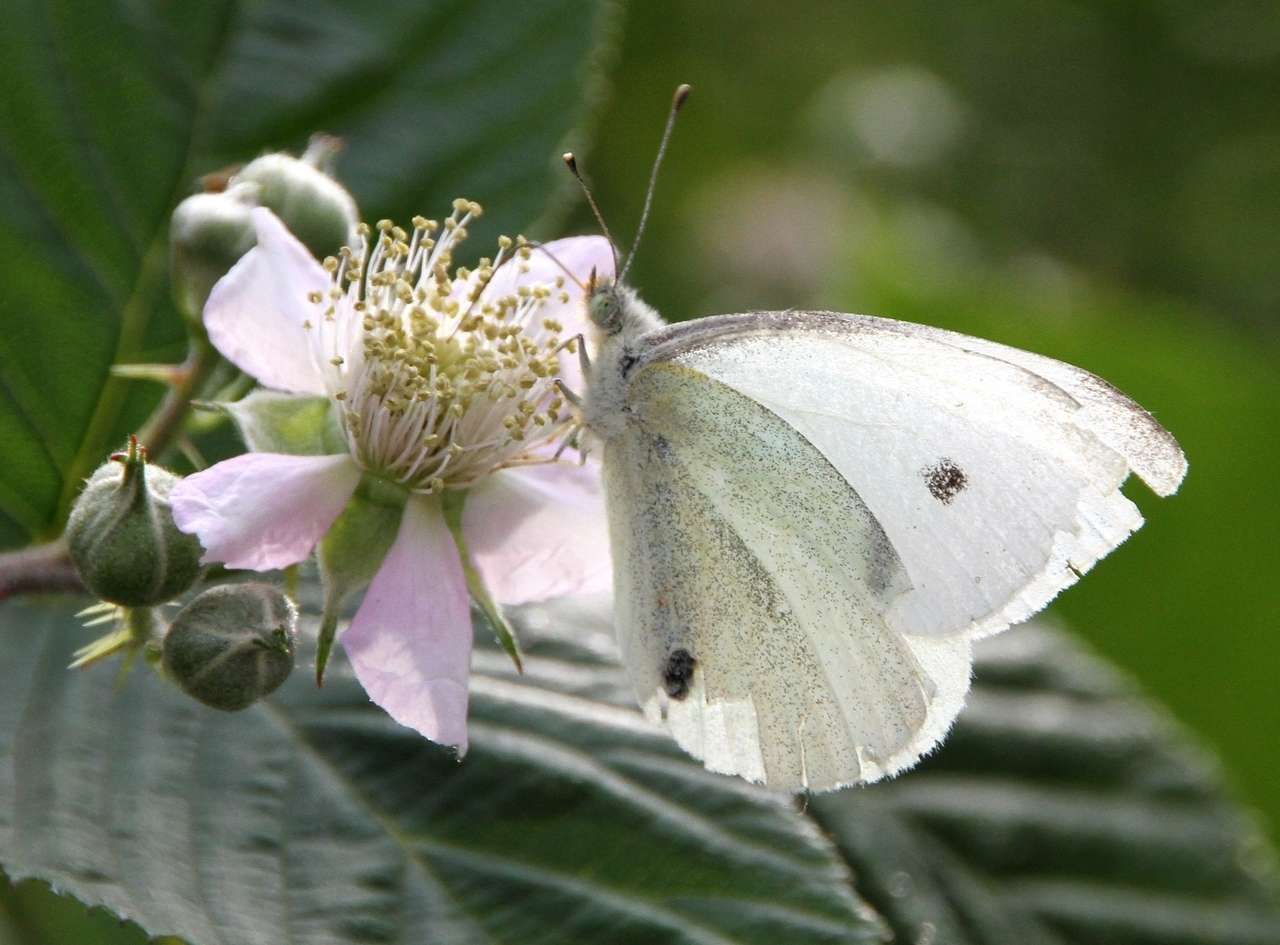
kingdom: Animalia
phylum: Arthropoda
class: Insecta
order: Lepidoptera
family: Pieridae
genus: Pieris
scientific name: Pieris rapae
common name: Small white
